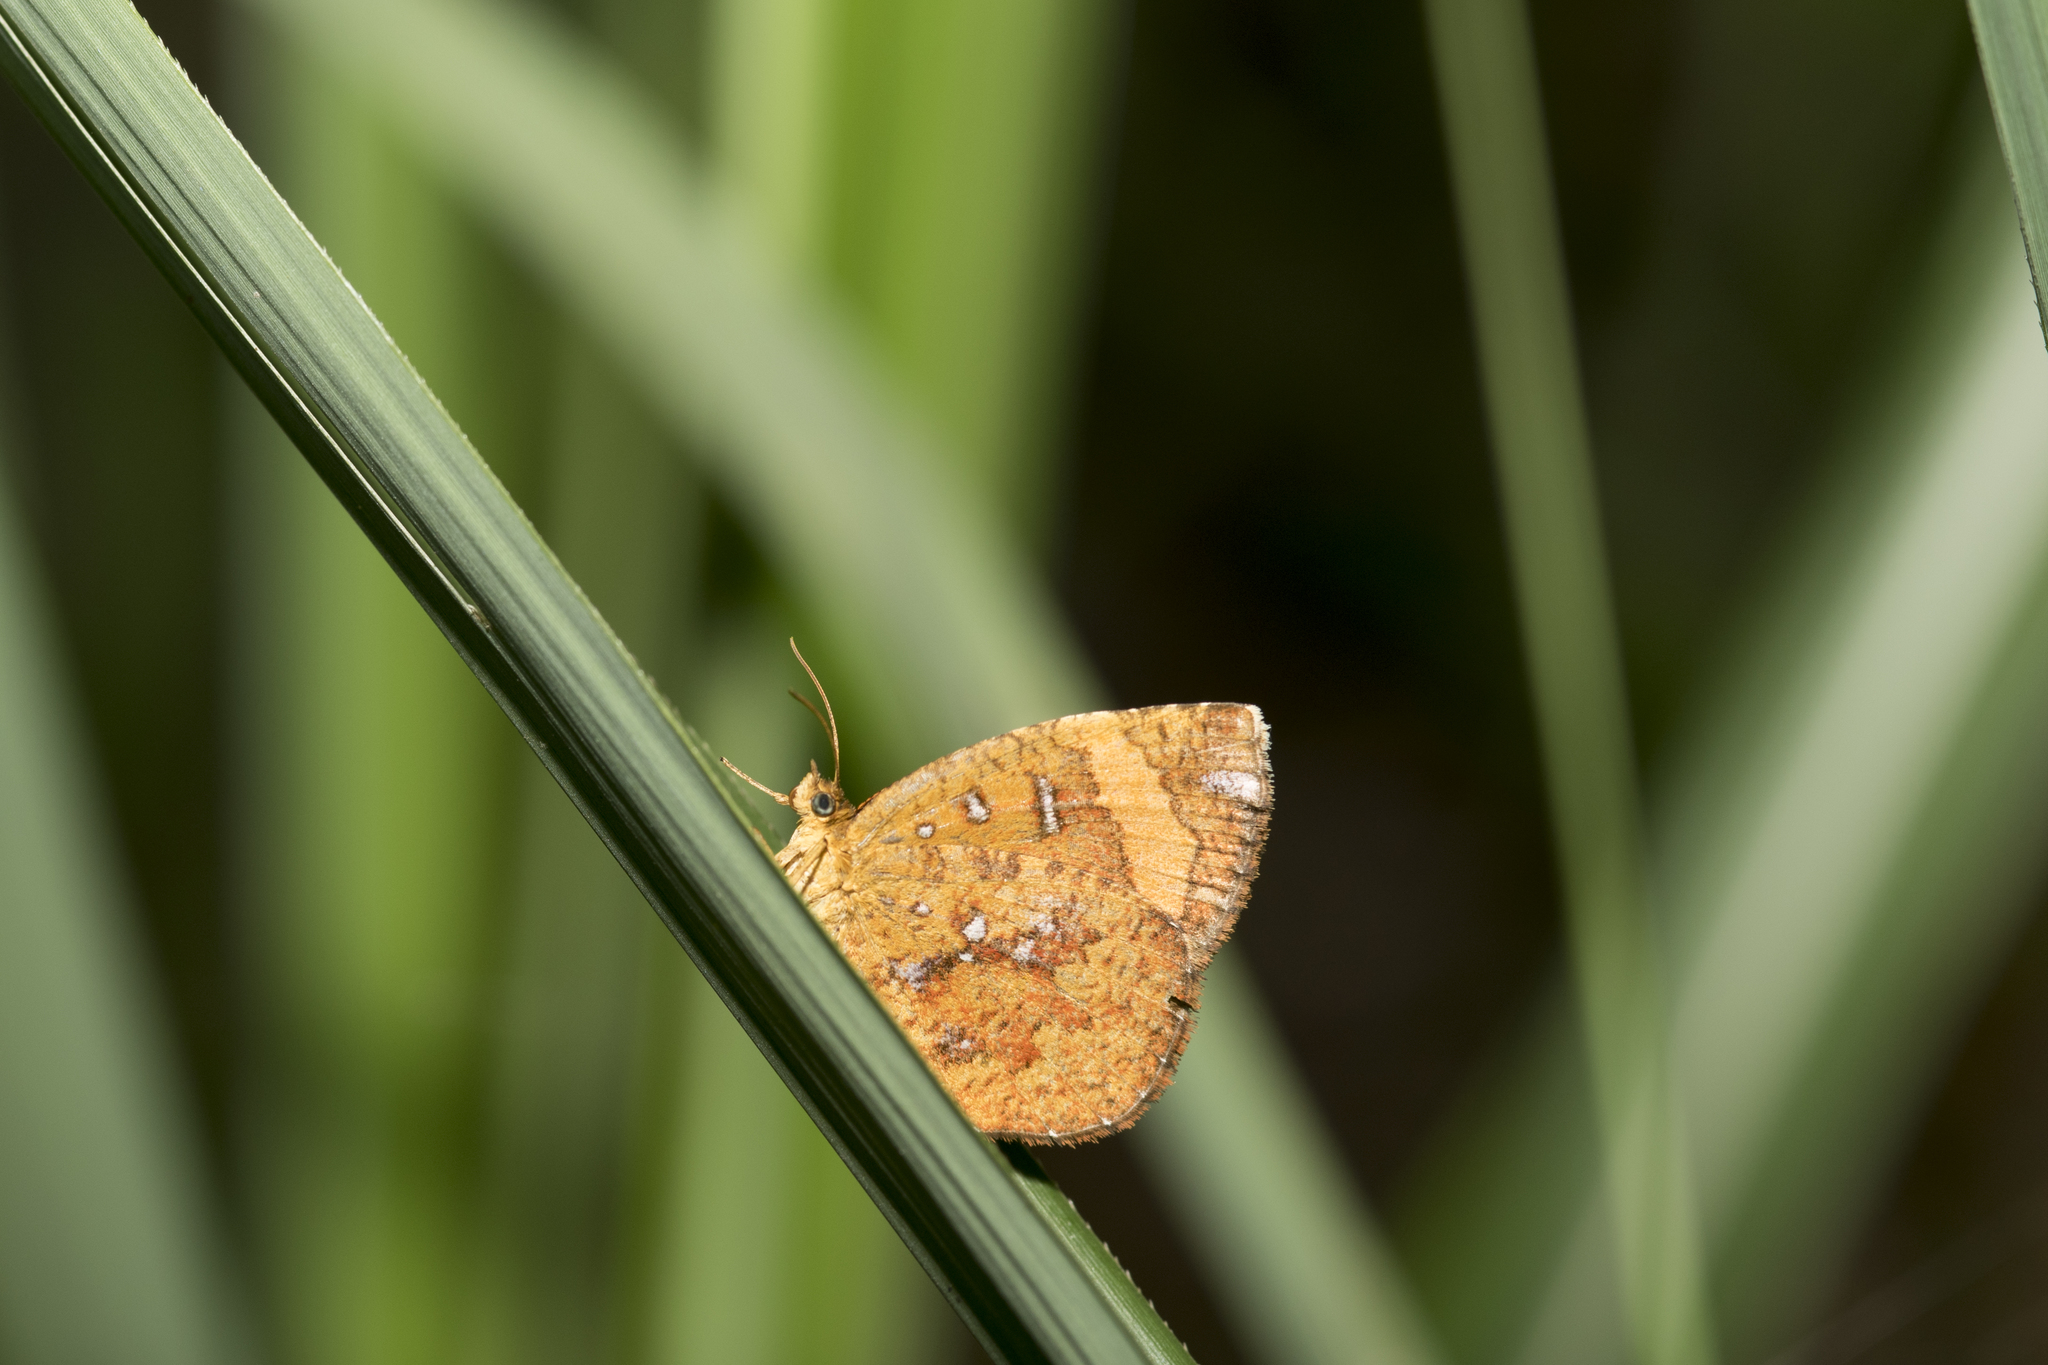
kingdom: Animalia
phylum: Arthropoda
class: Insecta
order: Lepidoptera
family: Callidulidae
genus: Petavia
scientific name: Petavia attenuata
